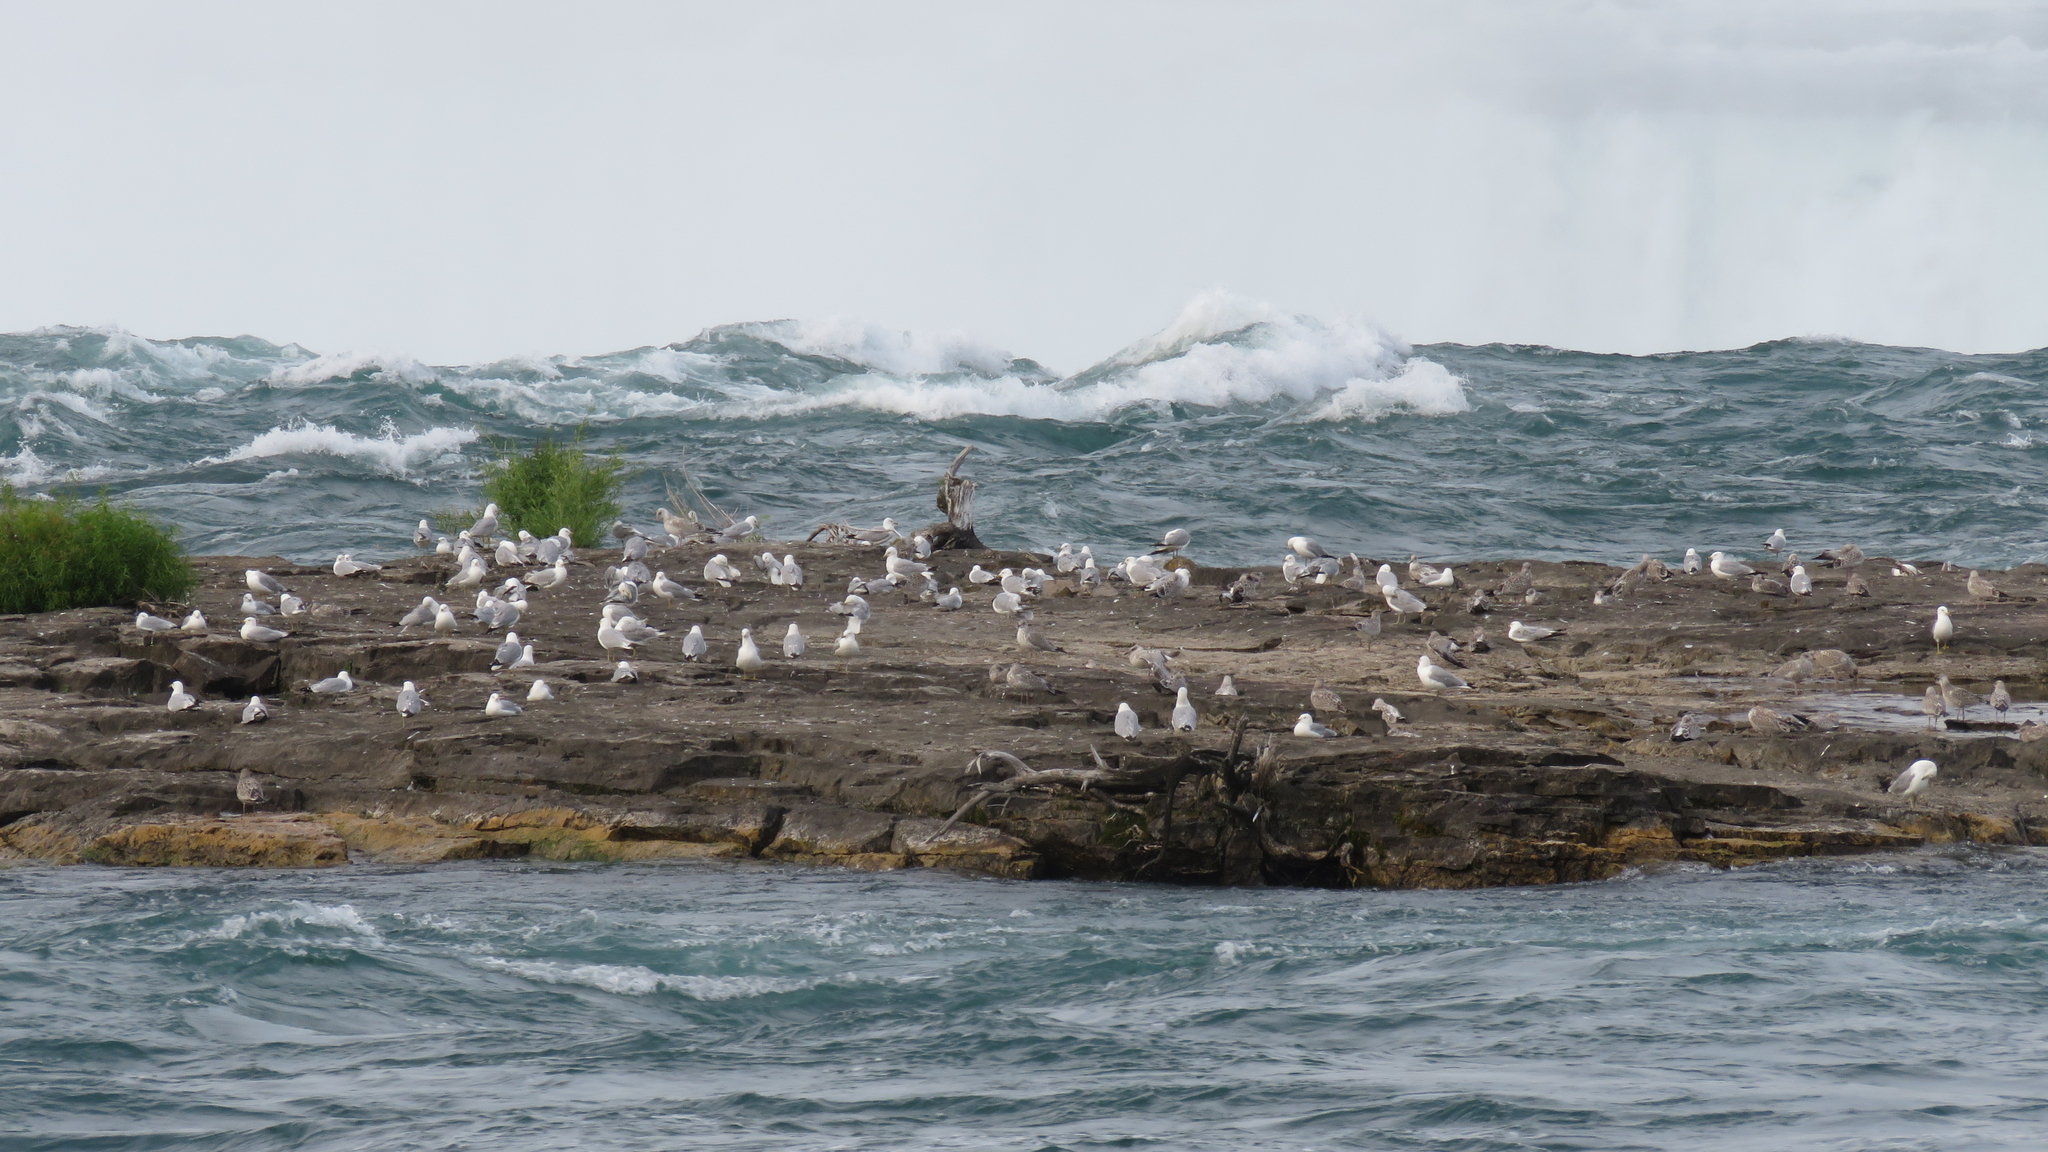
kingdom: Animalia
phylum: Chordata
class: Aves
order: Charadriiformes
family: Laridae
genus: Larus
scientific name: Larus delawarensis
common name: Ring-billed gull
